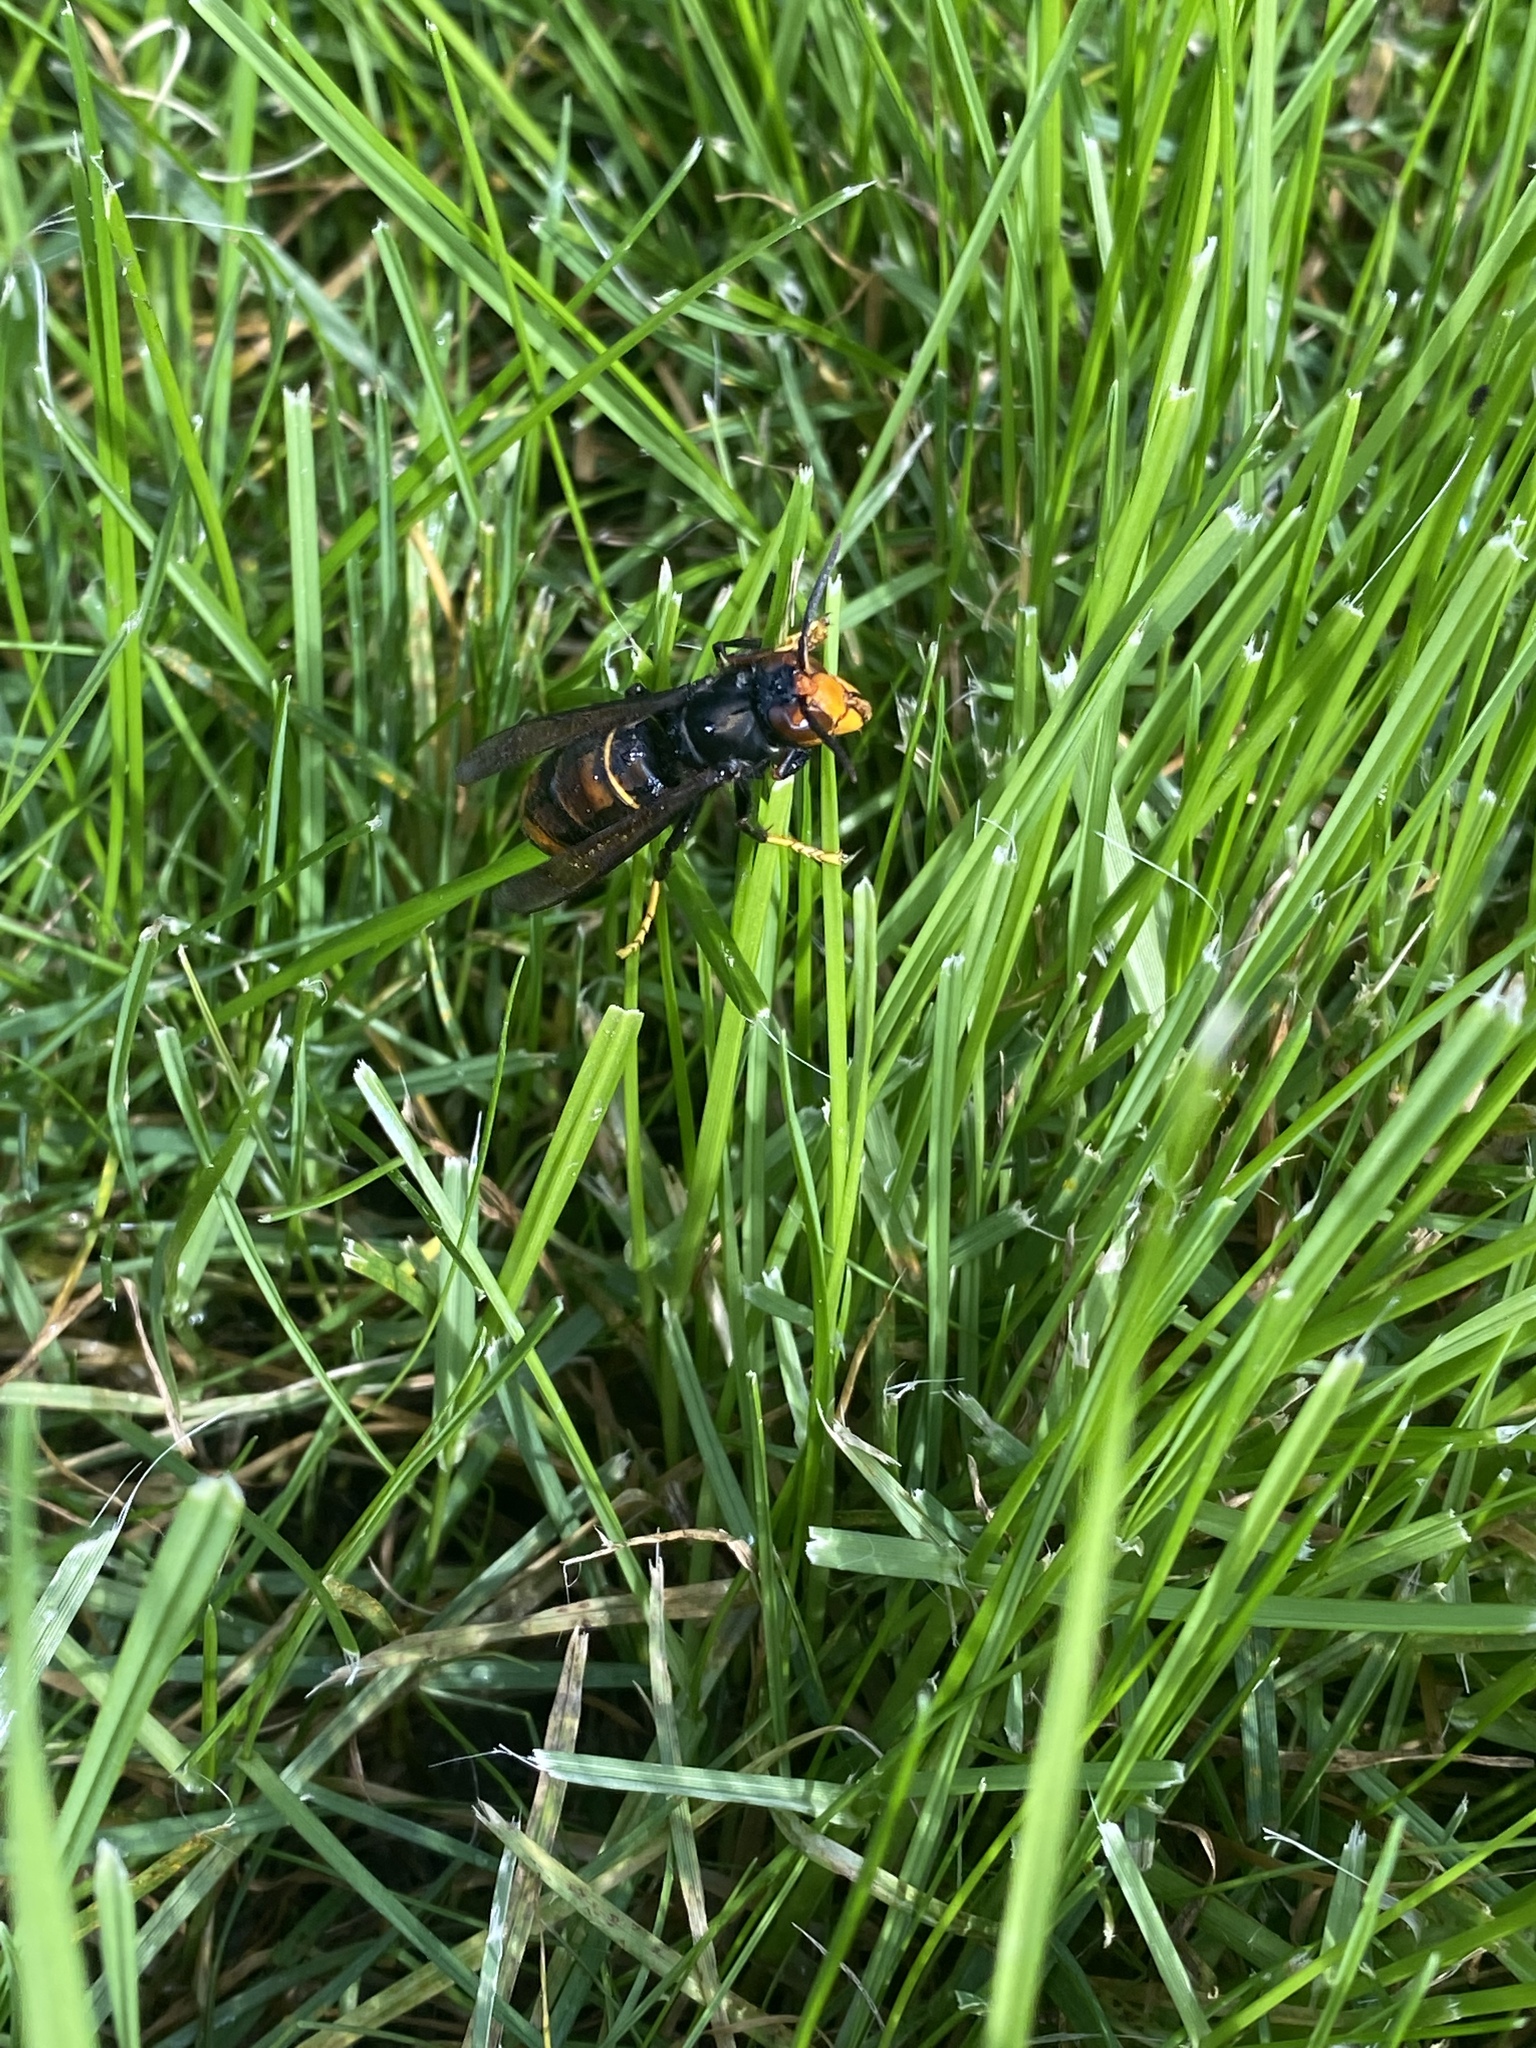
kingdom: Animalia
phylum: Arthropoda
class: Insecta
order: Hymenoptera
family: Vespidae
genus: Vespa
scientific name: Vespa velutina
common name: Asian hornet
